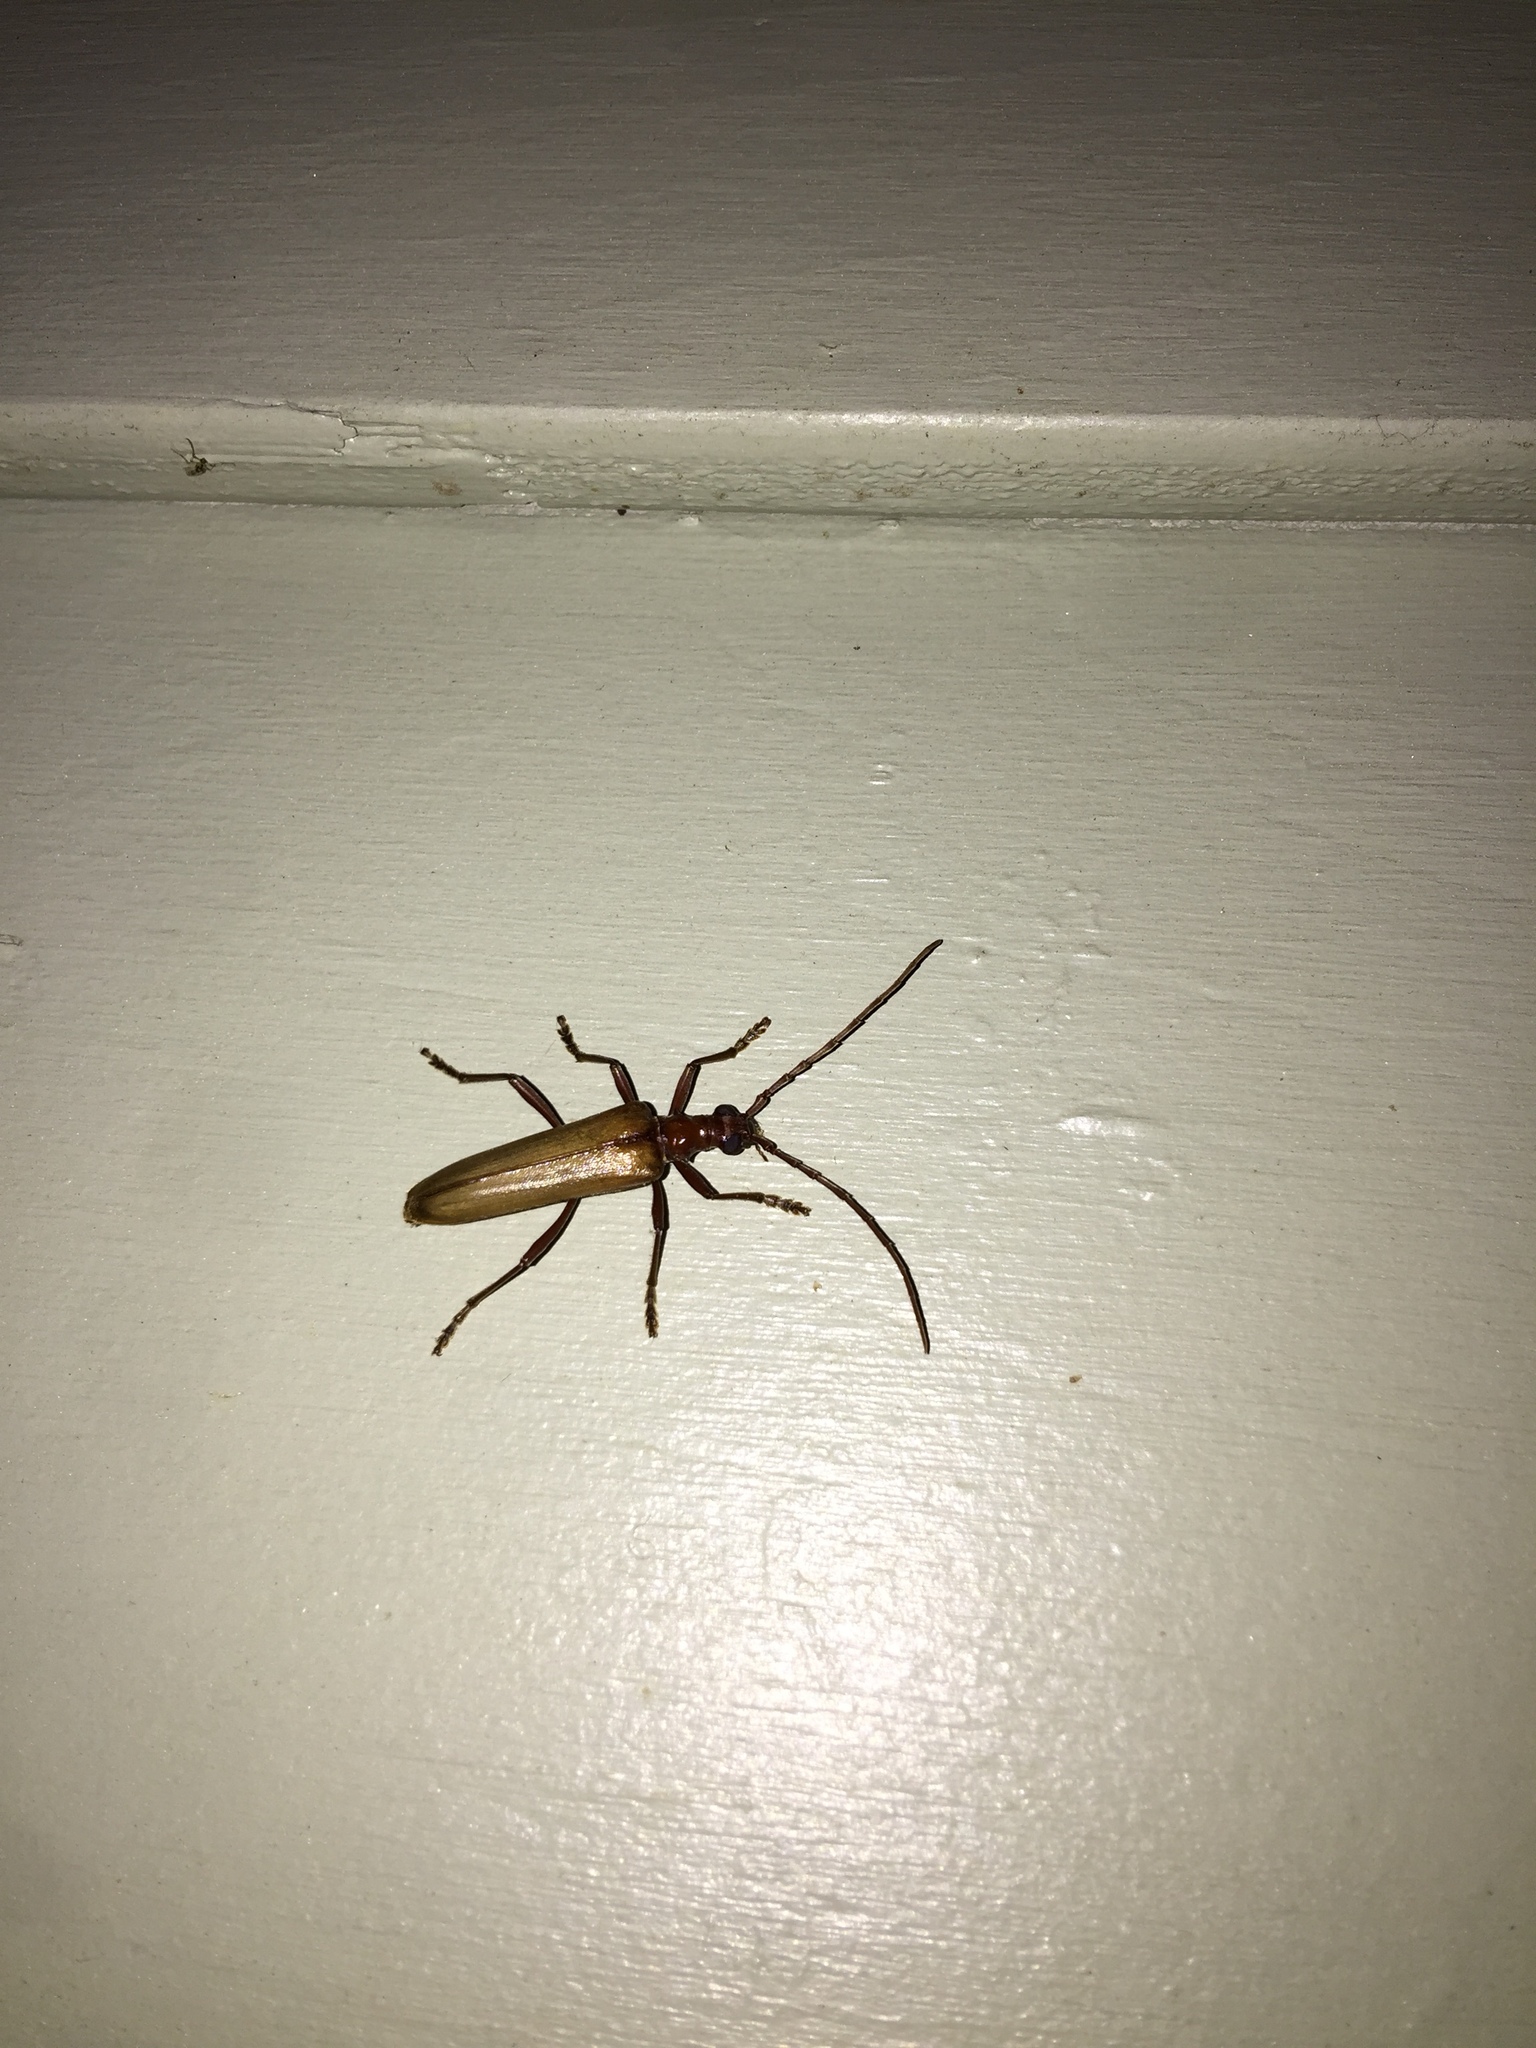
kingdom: Animalia
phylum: Arthropoda
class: Insecta
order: Coleoptera
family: Cerambycidae
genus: Stenocorus
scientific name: Stenocorus cinnamopterus
